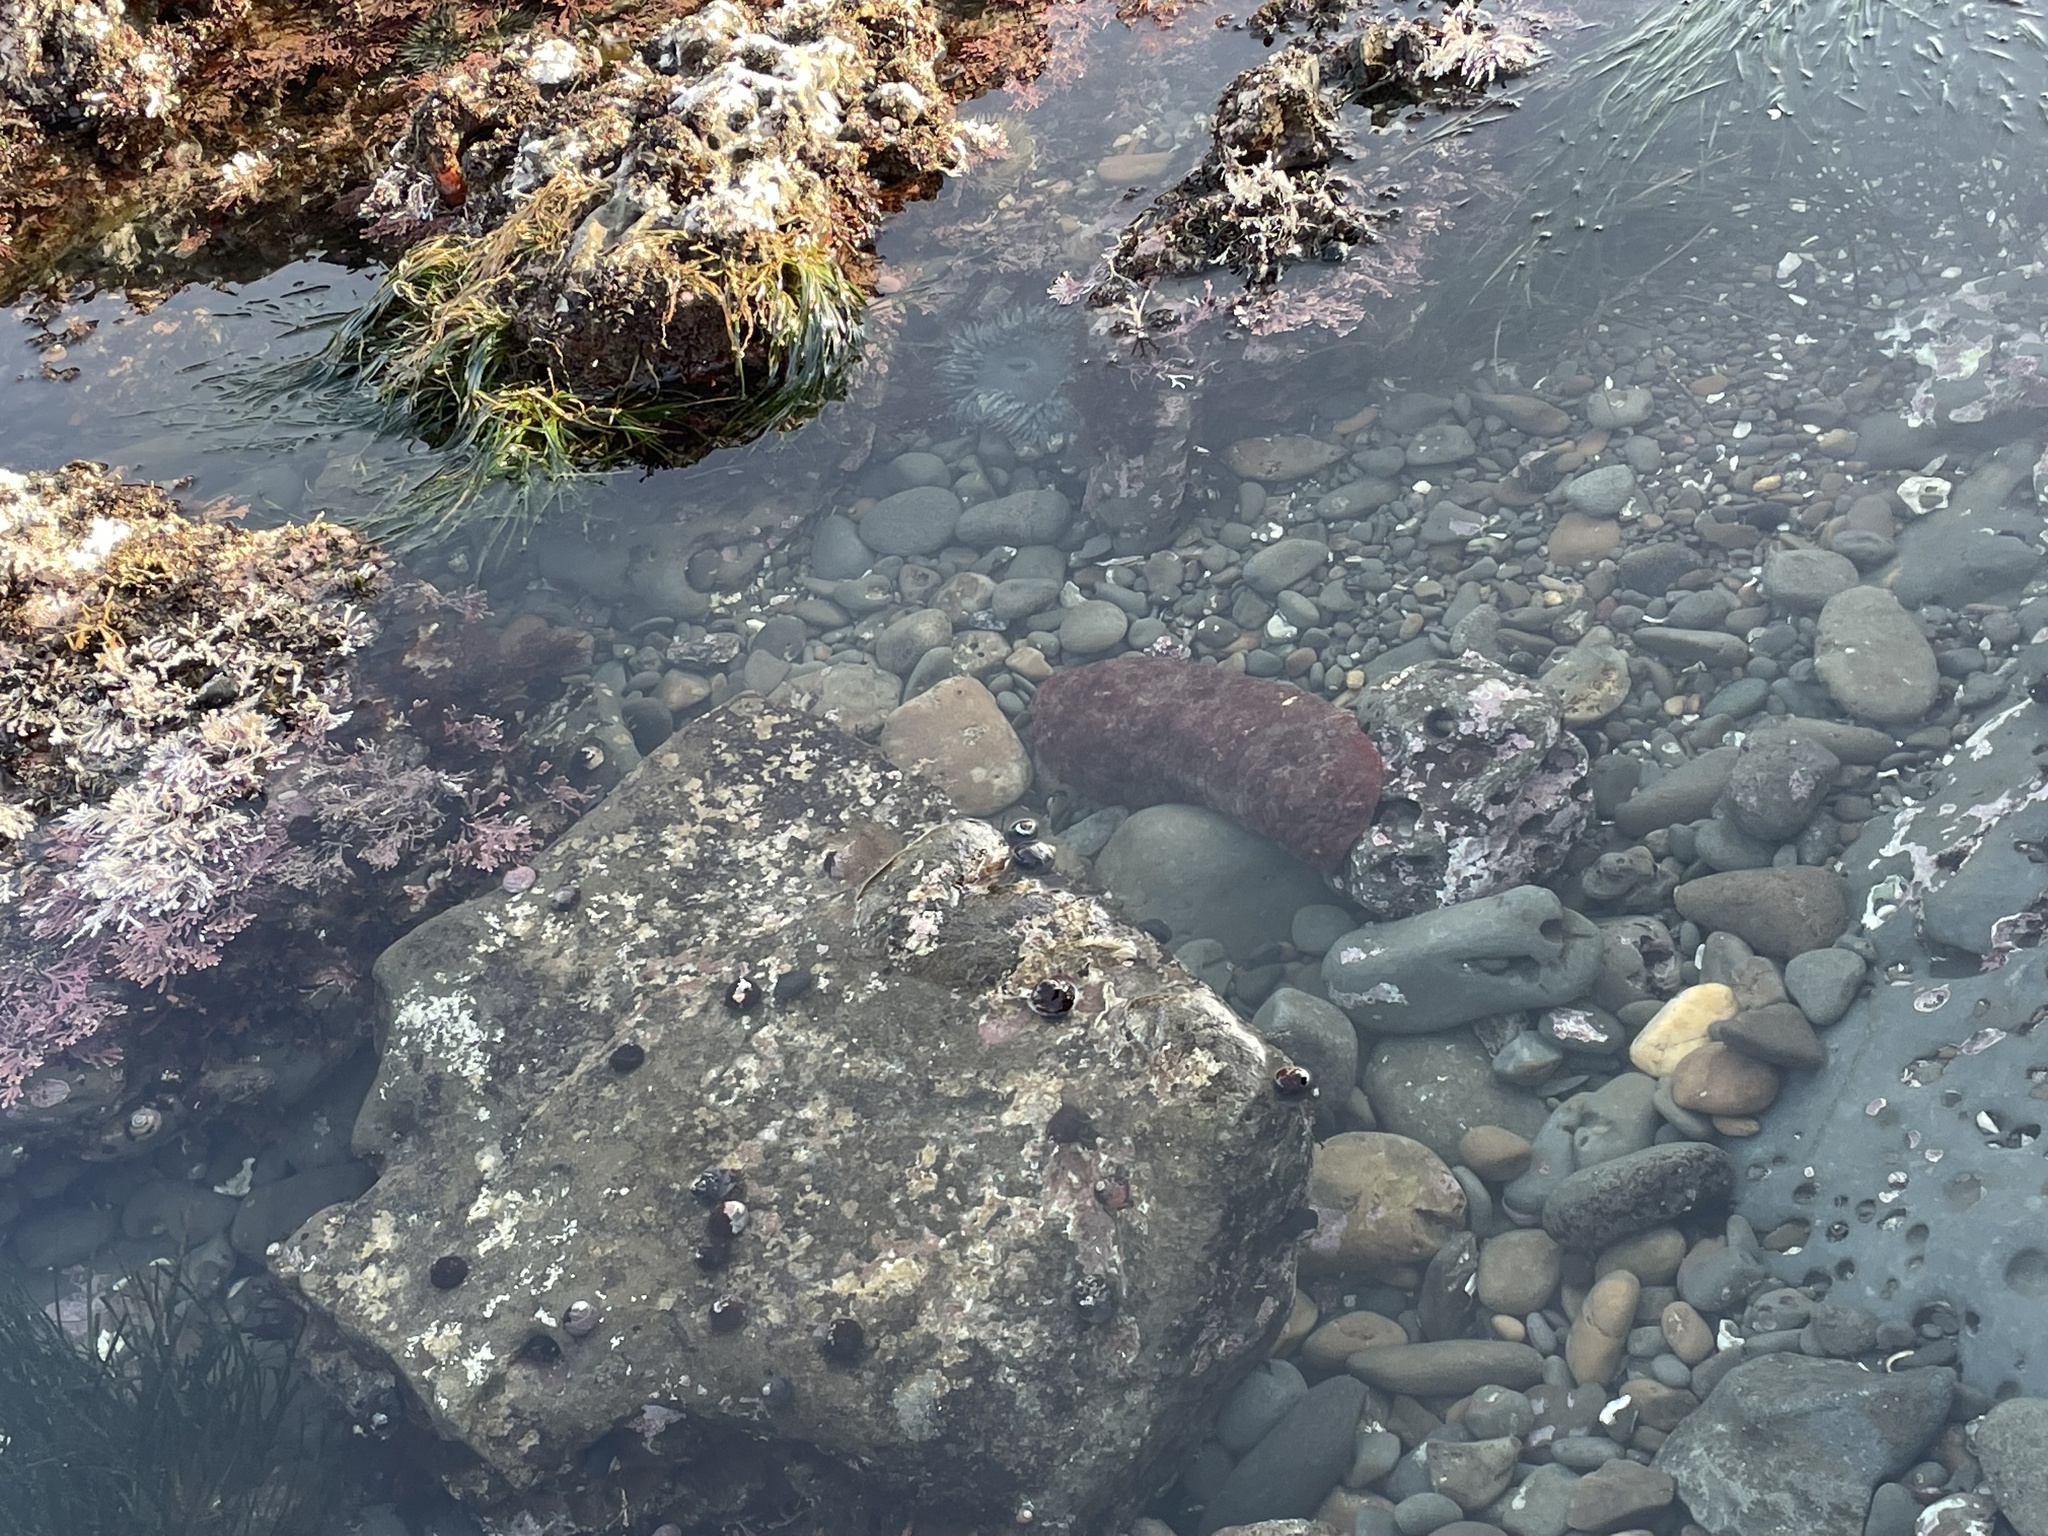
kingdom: Animalia
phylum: Mollusca
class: Polyplacophora
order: Chitonida
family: Acanthochitonidae
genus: Cryptochiton
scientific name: Cryptochiton stelleri
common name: Giant pacific chiton
